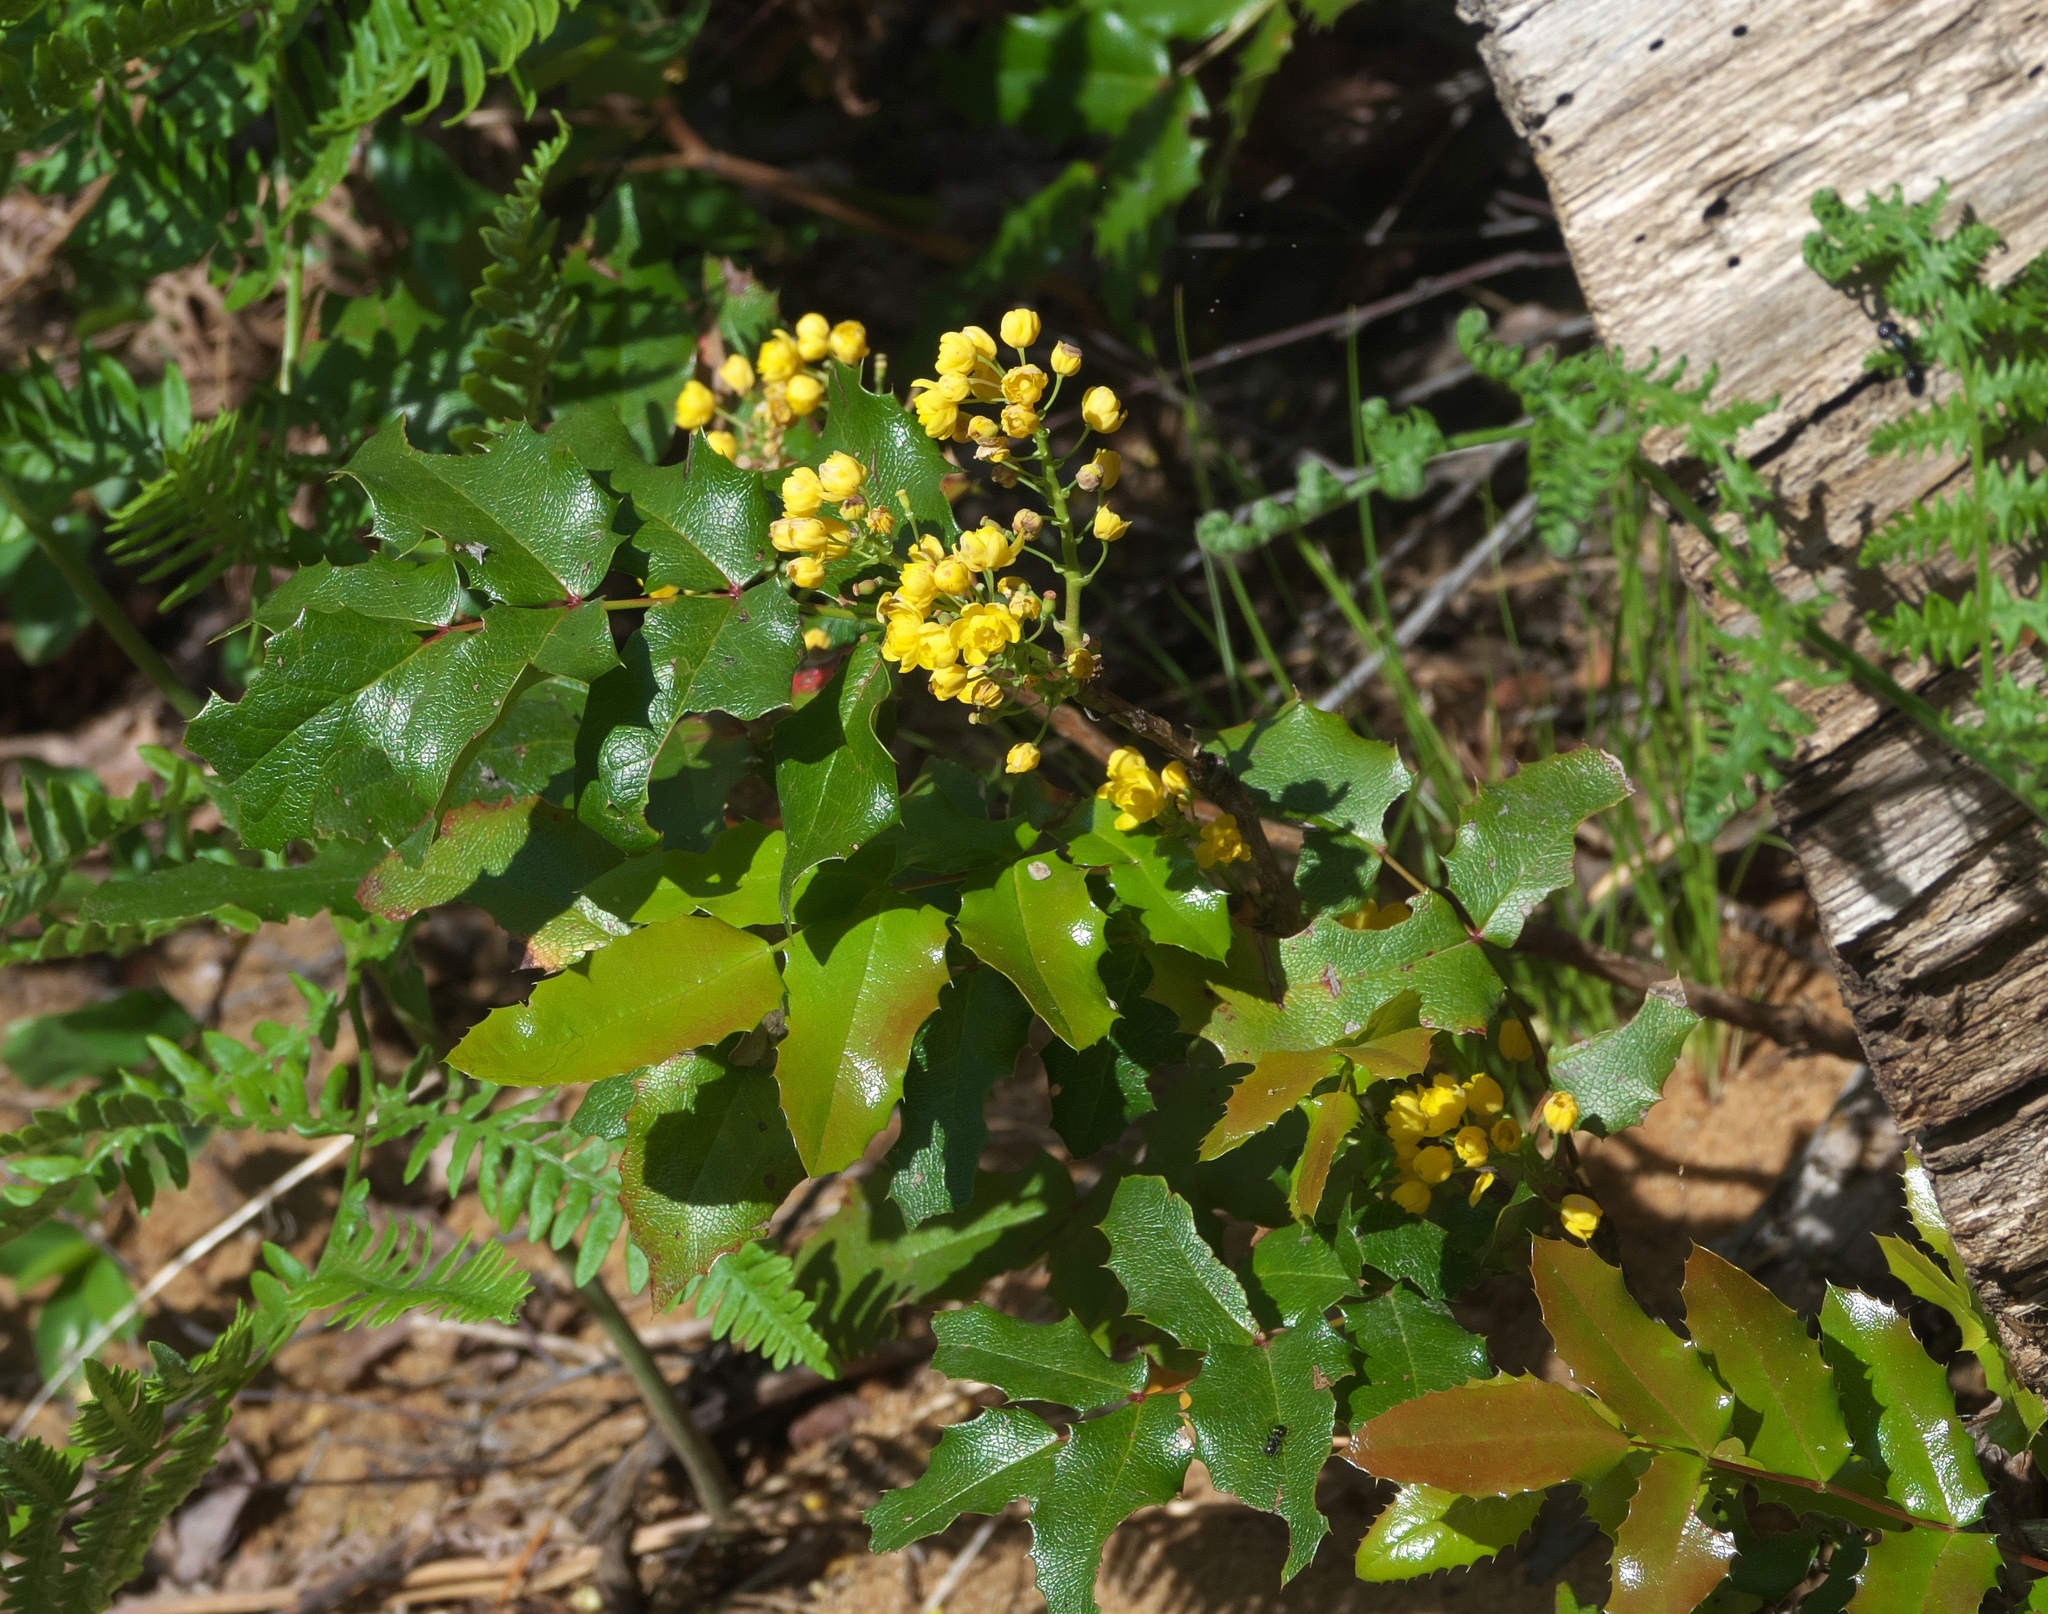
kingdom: Plantae
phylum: Tracheophyta
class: Magnoliopsida
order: Ranunculales
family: Berberidaceae
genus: Mahonia
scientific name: Mahonia aquifolium
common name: Oregon-grape
